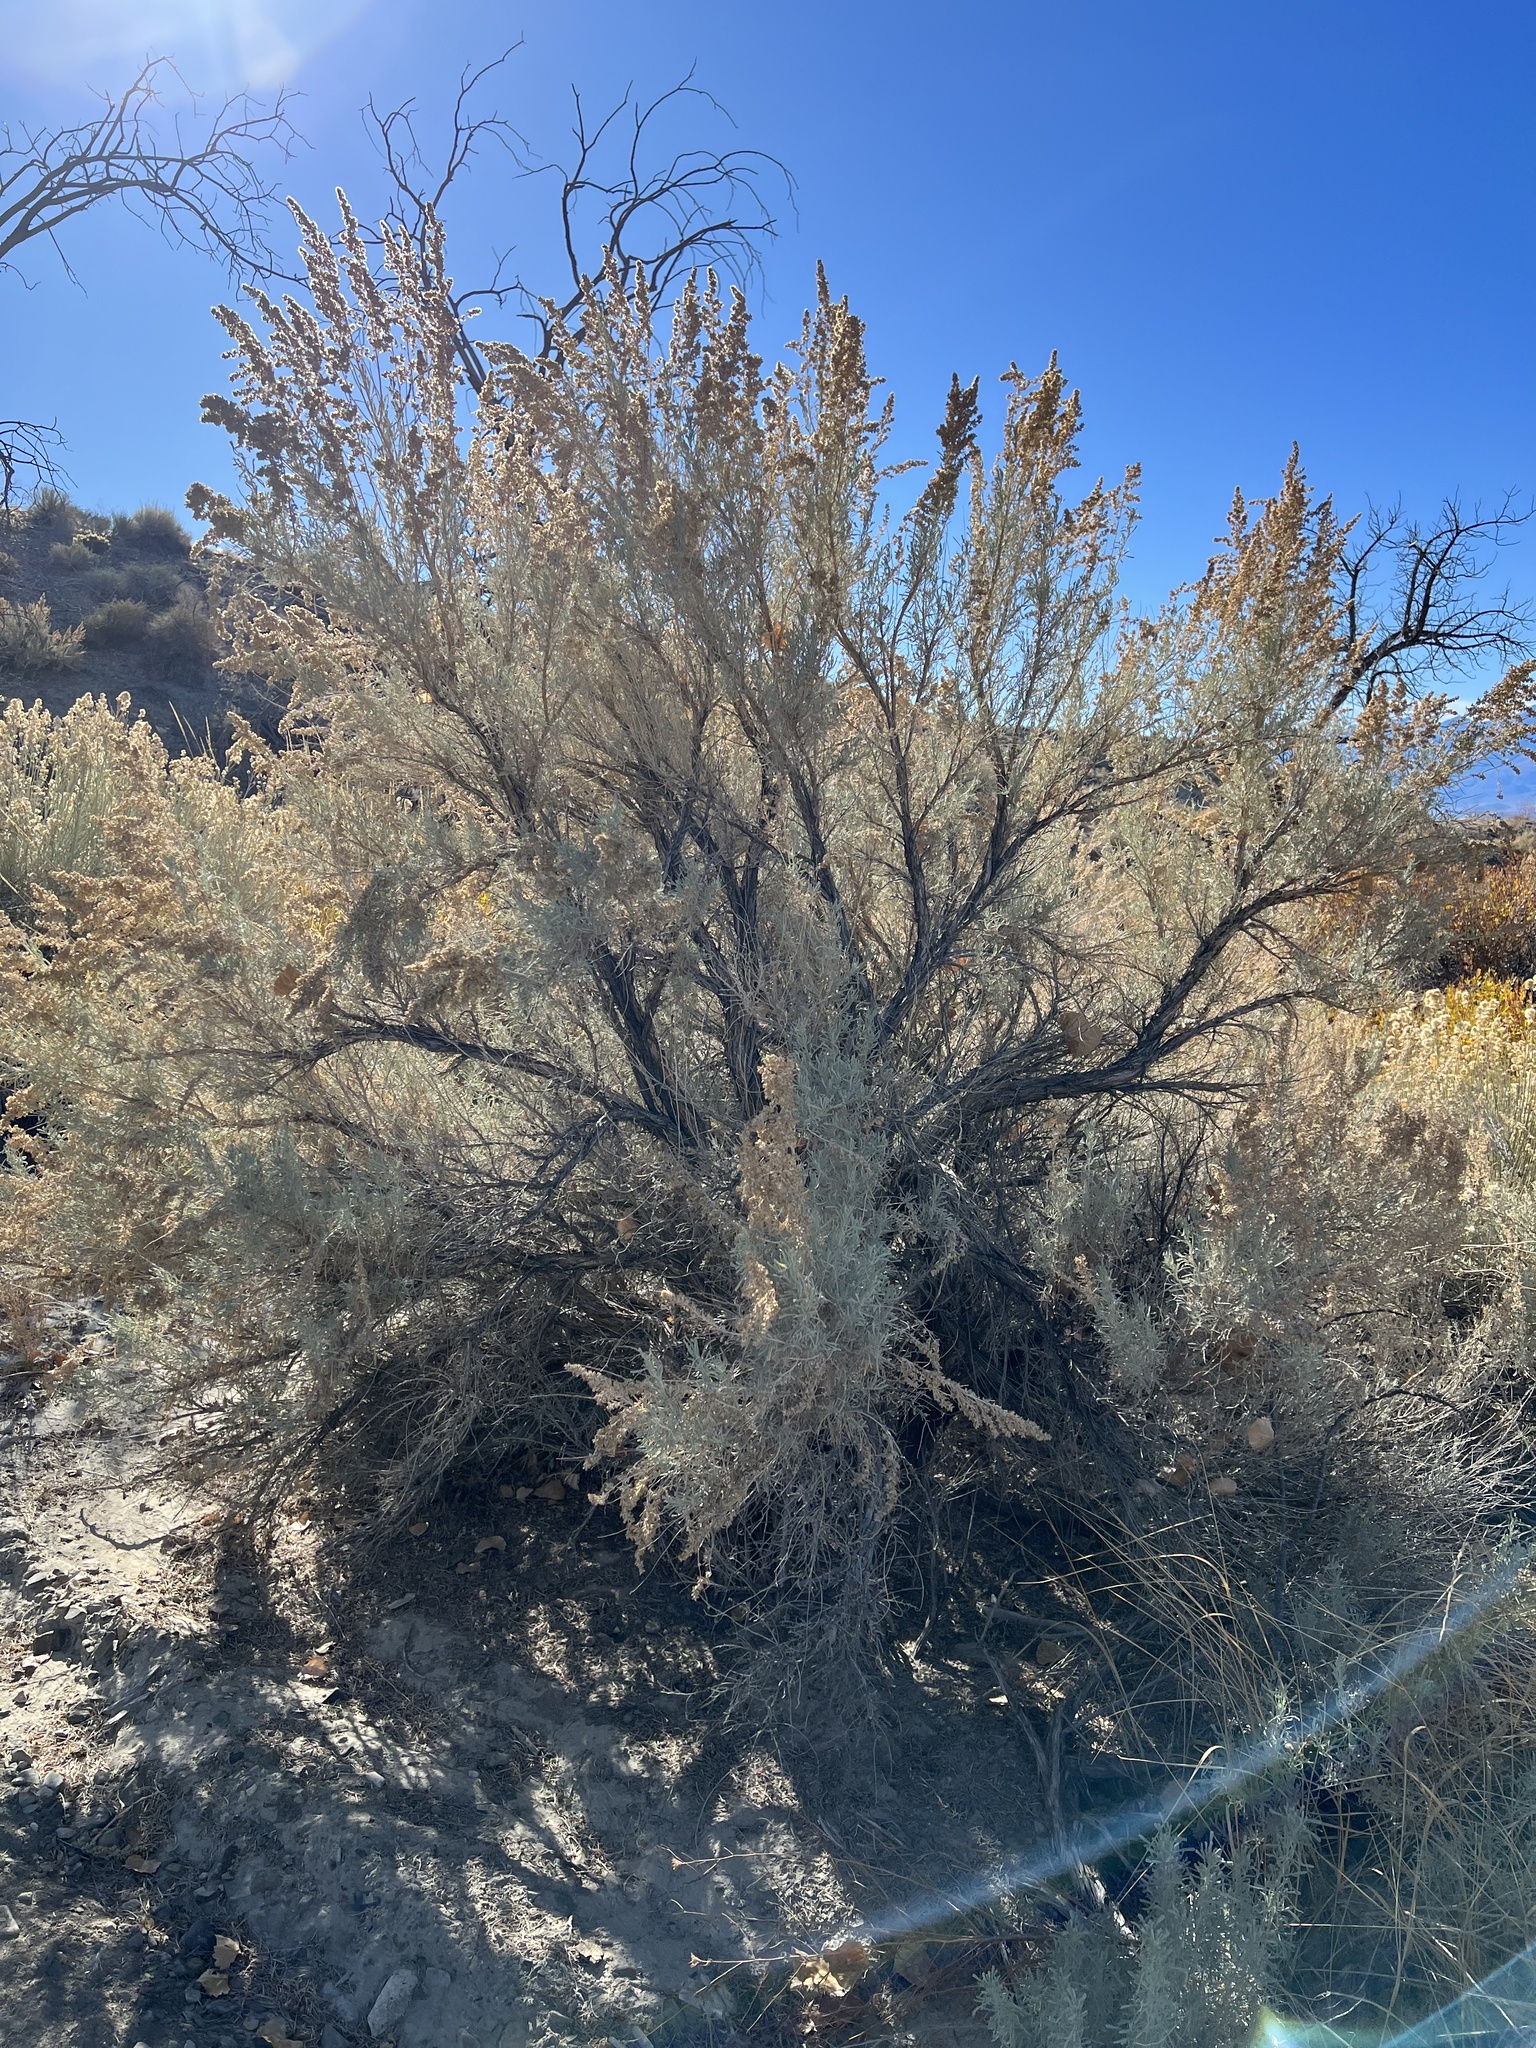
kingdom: Plantae
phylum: Tracheophyta
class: Magnoliopsida
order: Asterales
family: Asteraceae
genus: Artemisia
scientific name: Artemisia tridentata
